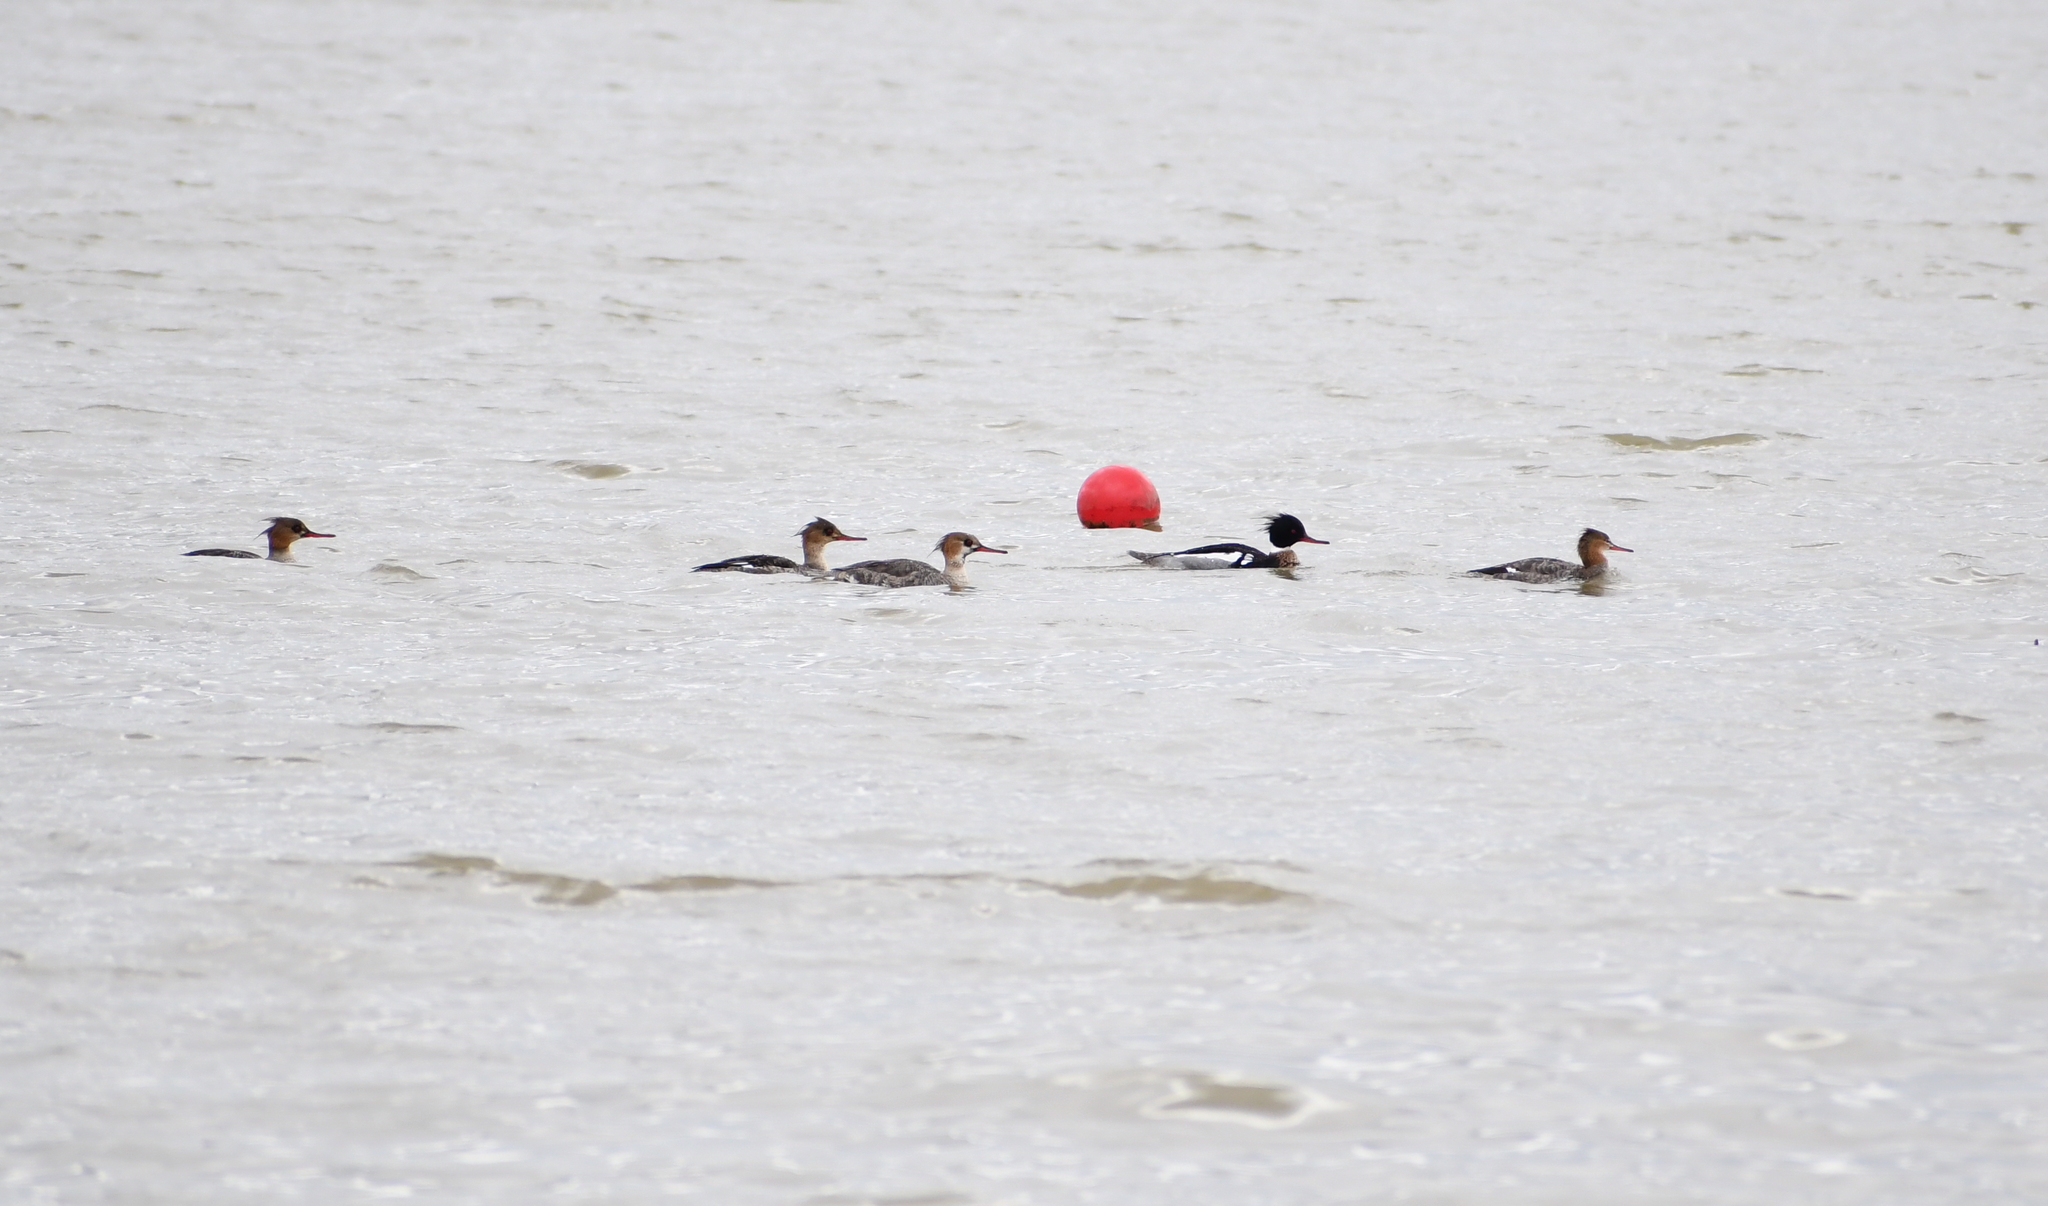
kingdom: Animalia
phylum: Chordata
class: Aves
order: Anseriformes
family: Anatidae
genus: Mergus
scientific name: Mergus serrator
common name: Red-breasted merganser
